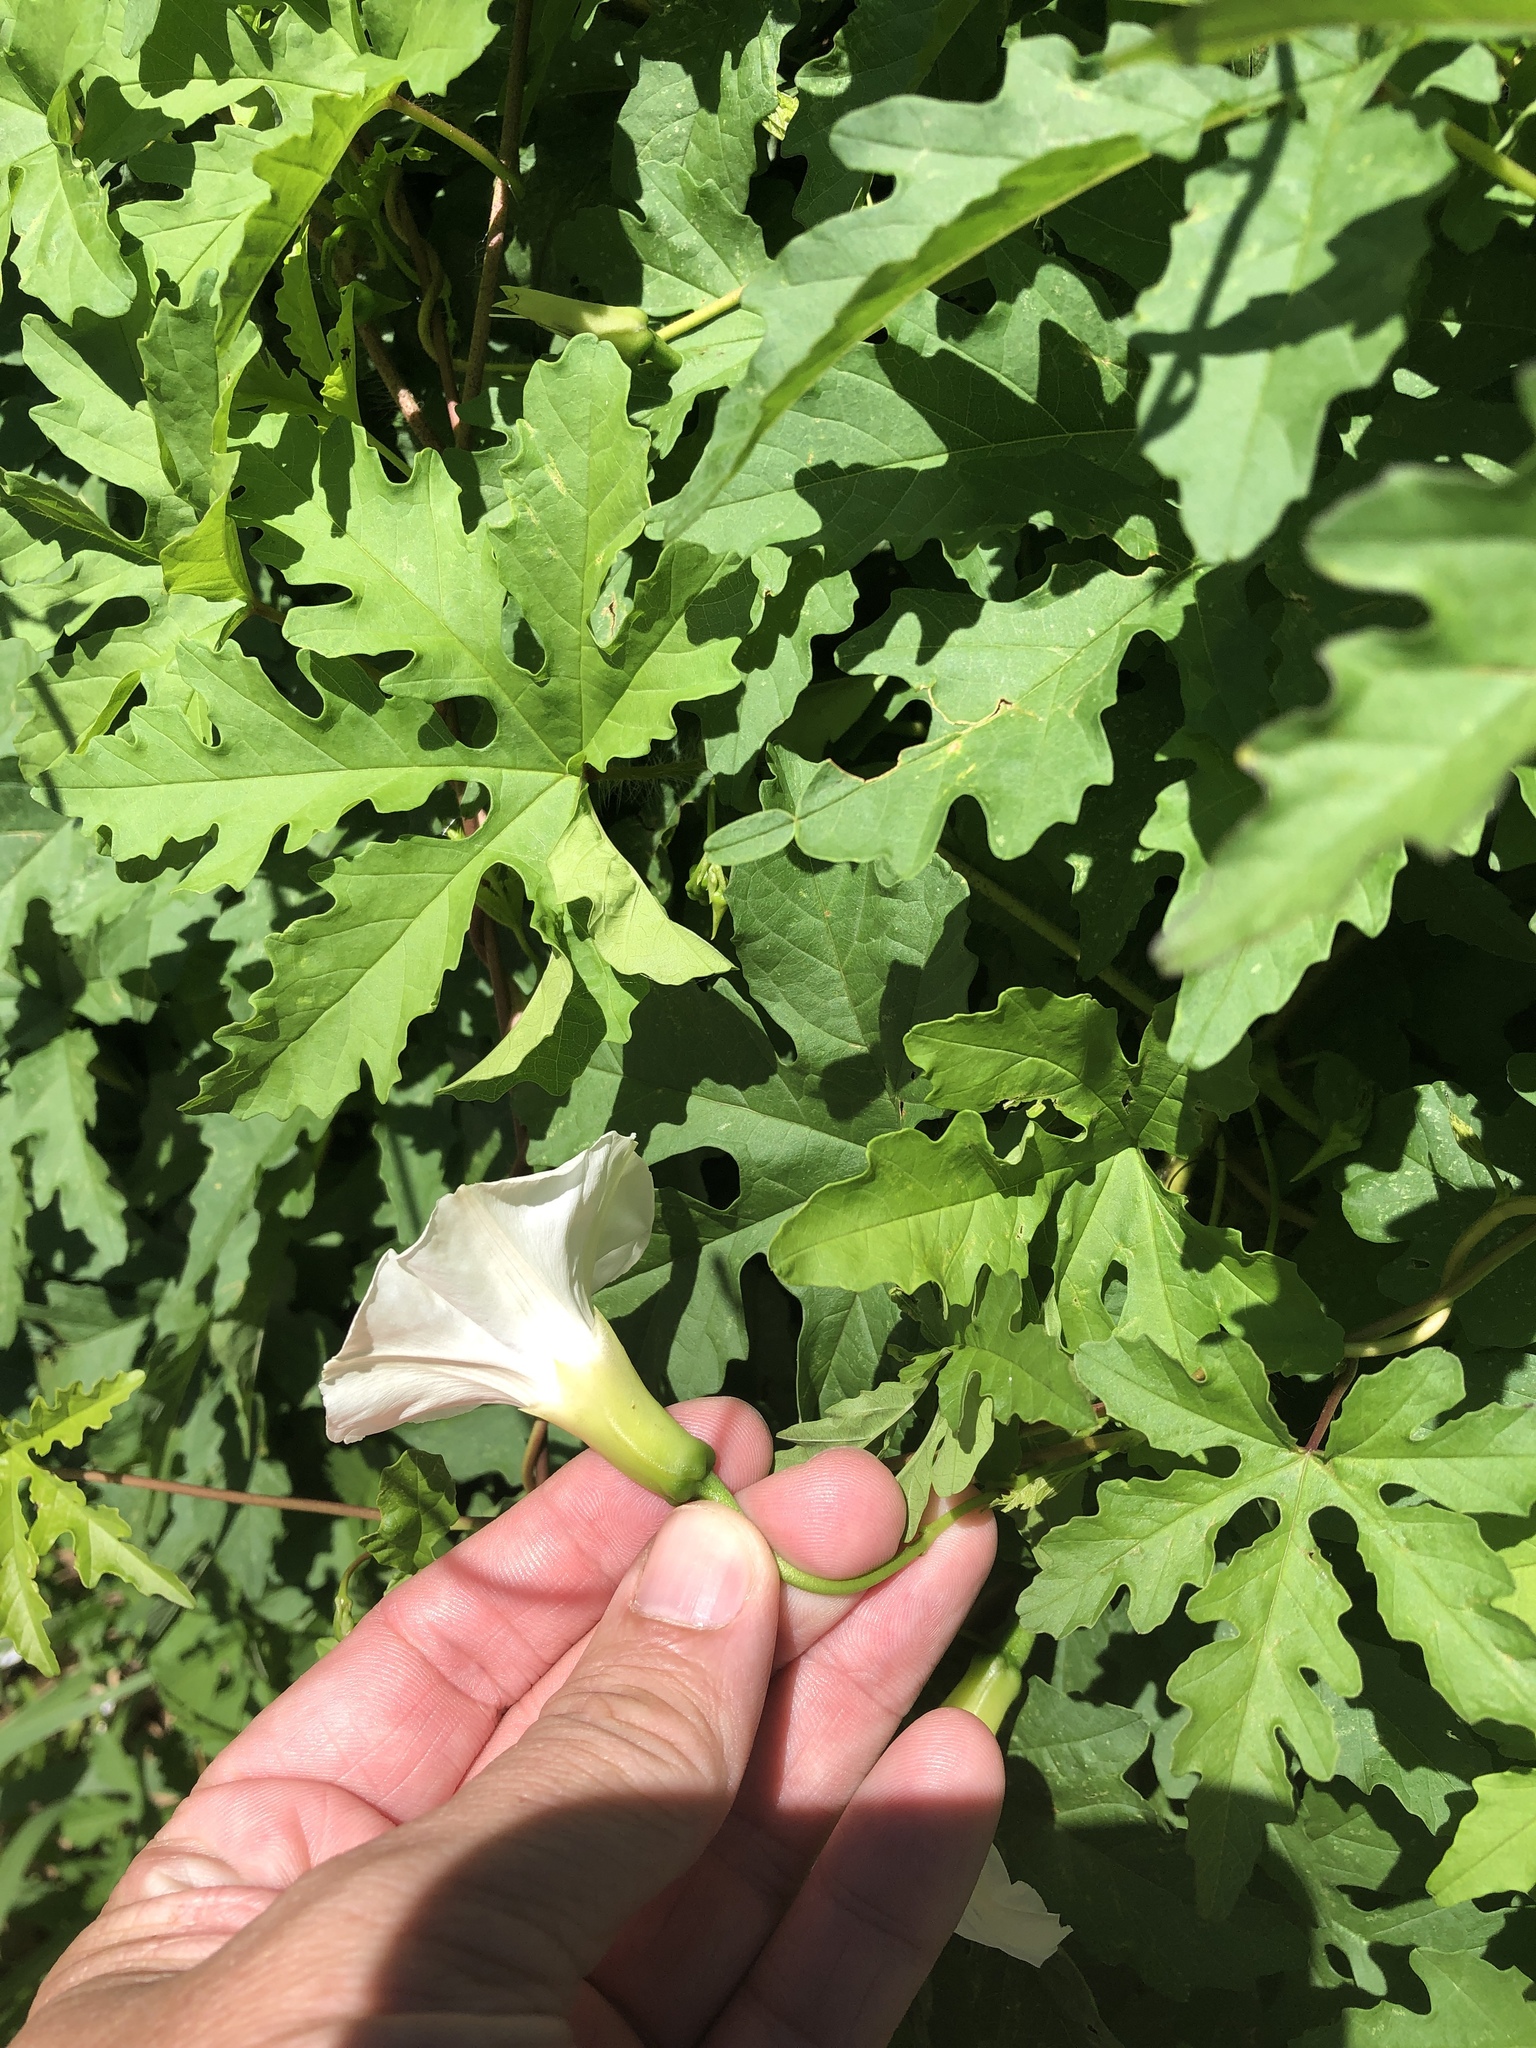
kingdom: Plantae
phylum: Tracheophyta
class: Magnoliopsida
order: Solanales
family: Convolvulaceae
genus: Distimake
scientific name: Distimake dissectus
